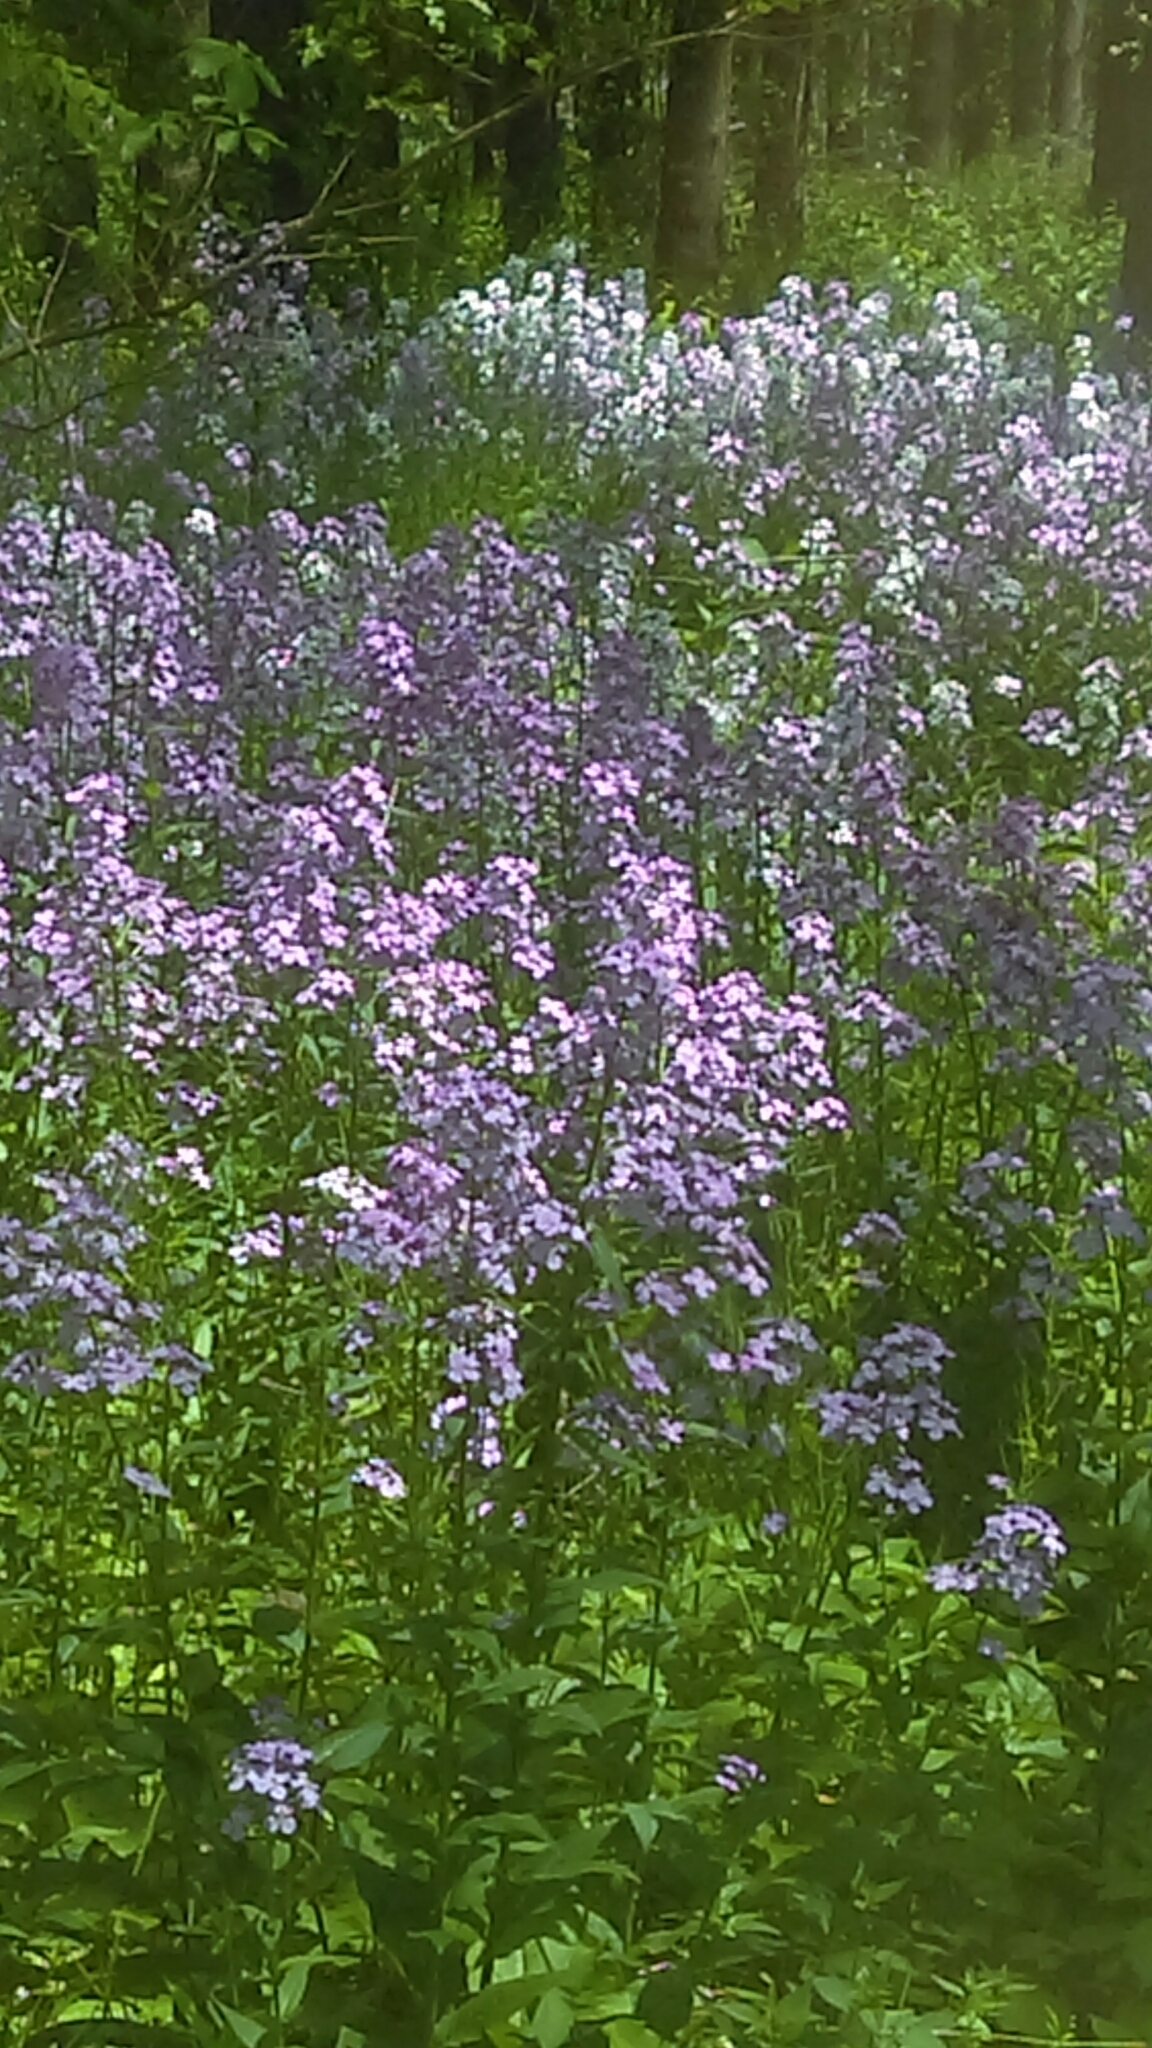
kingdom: Plantae
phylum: Tracheophyta
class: Magnoliopsida
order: Brassicales
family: Brassicaceae
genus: Hesperis
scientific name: Hesperis matronalis
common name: Dame's-violet
